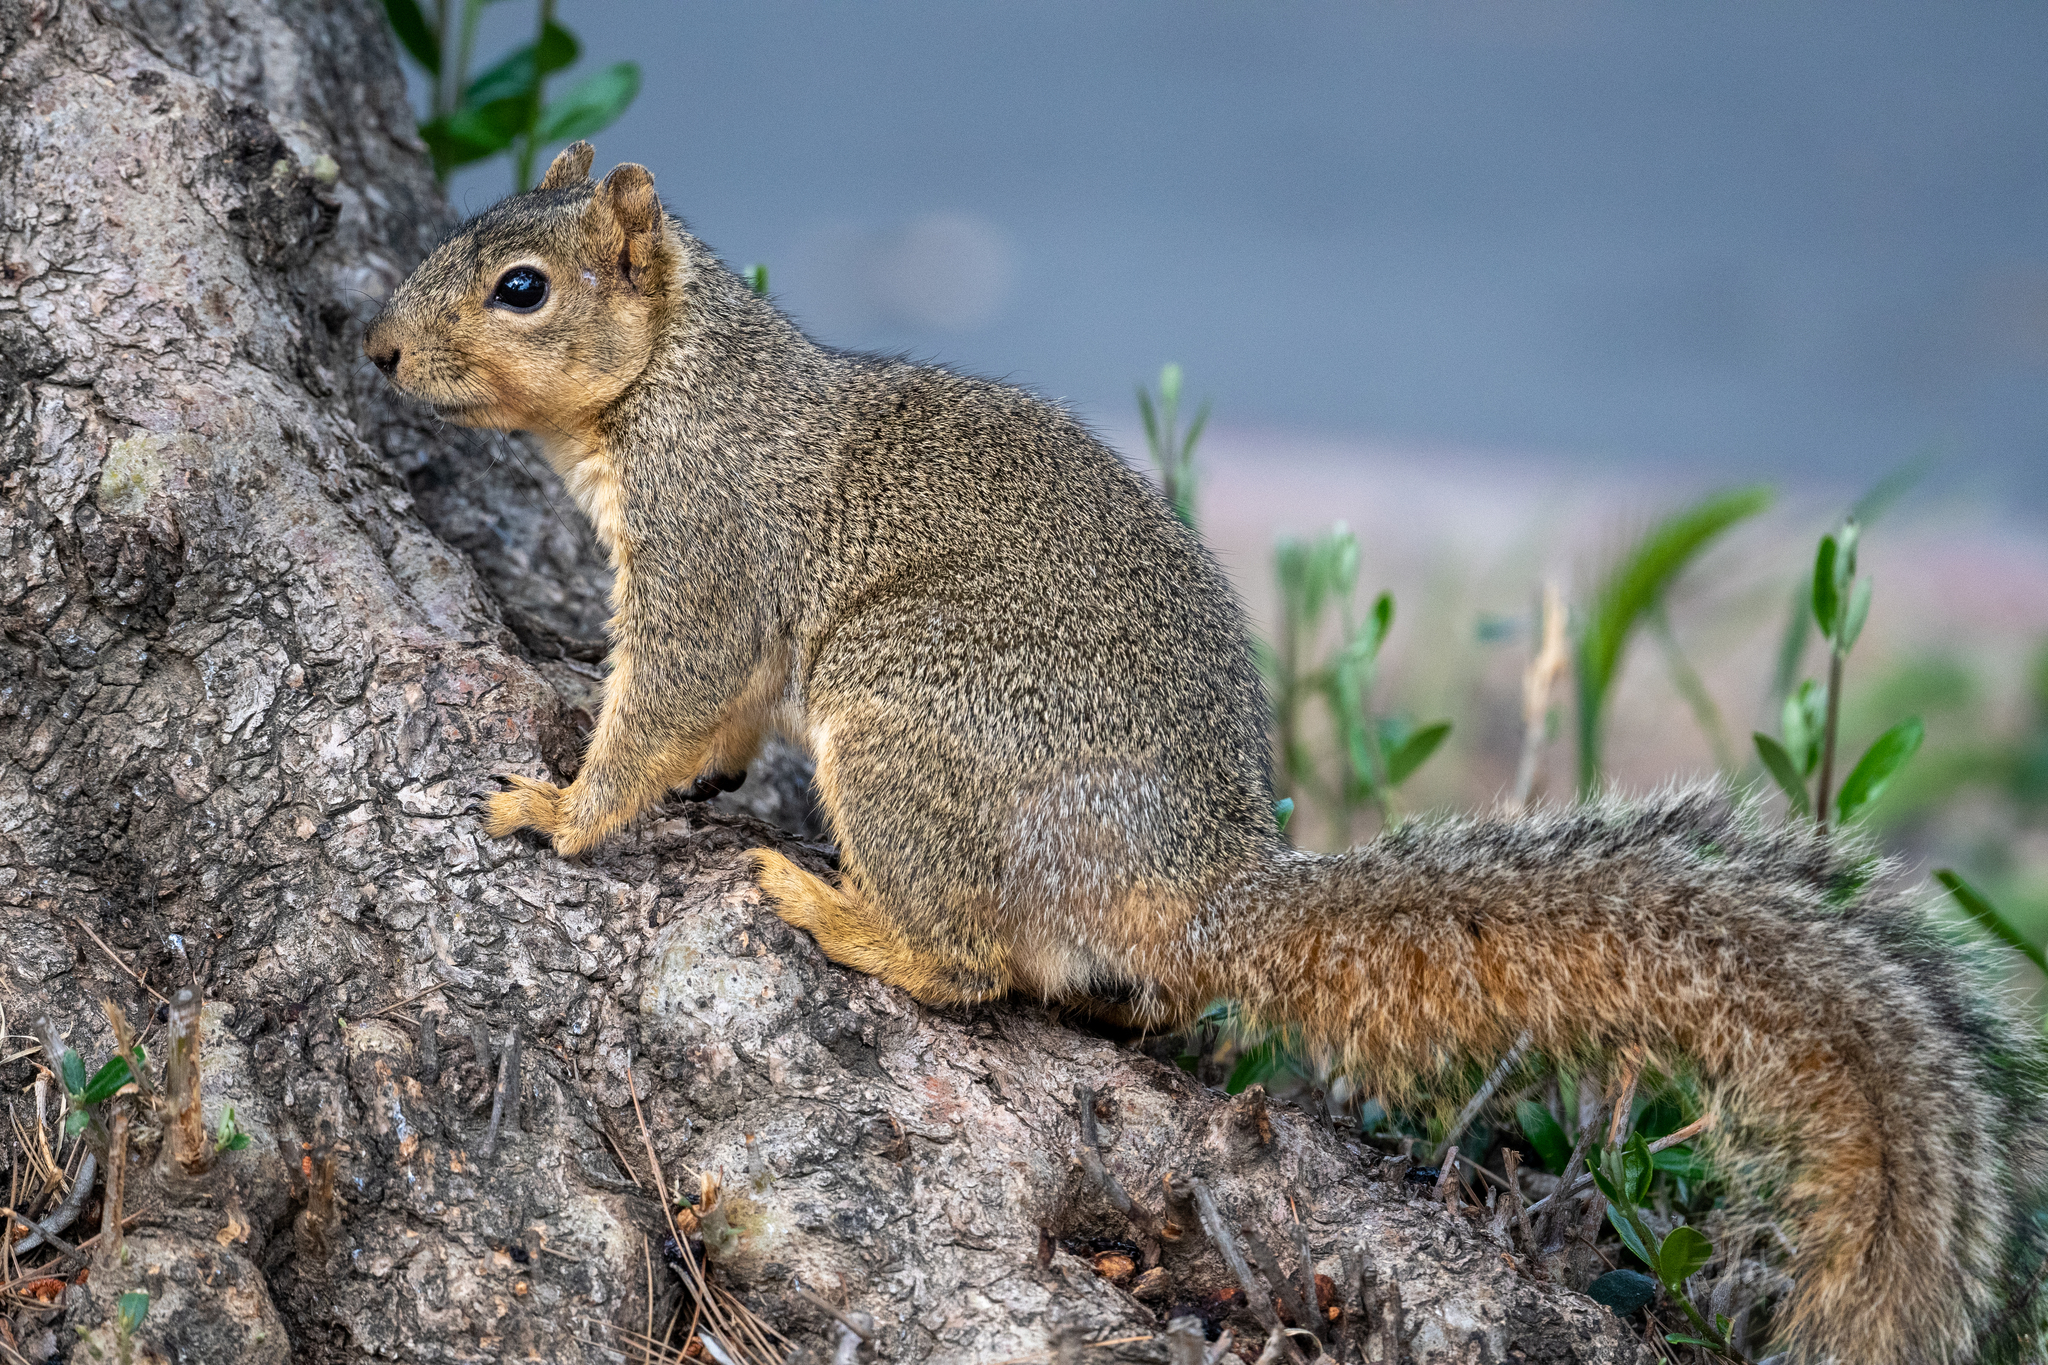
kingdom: Animalia
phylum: Chordata
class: Mammalia
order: Rodentia
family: Sciuridae
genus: Sciurus
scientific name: Sciurus niger
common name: Fox squirrel
